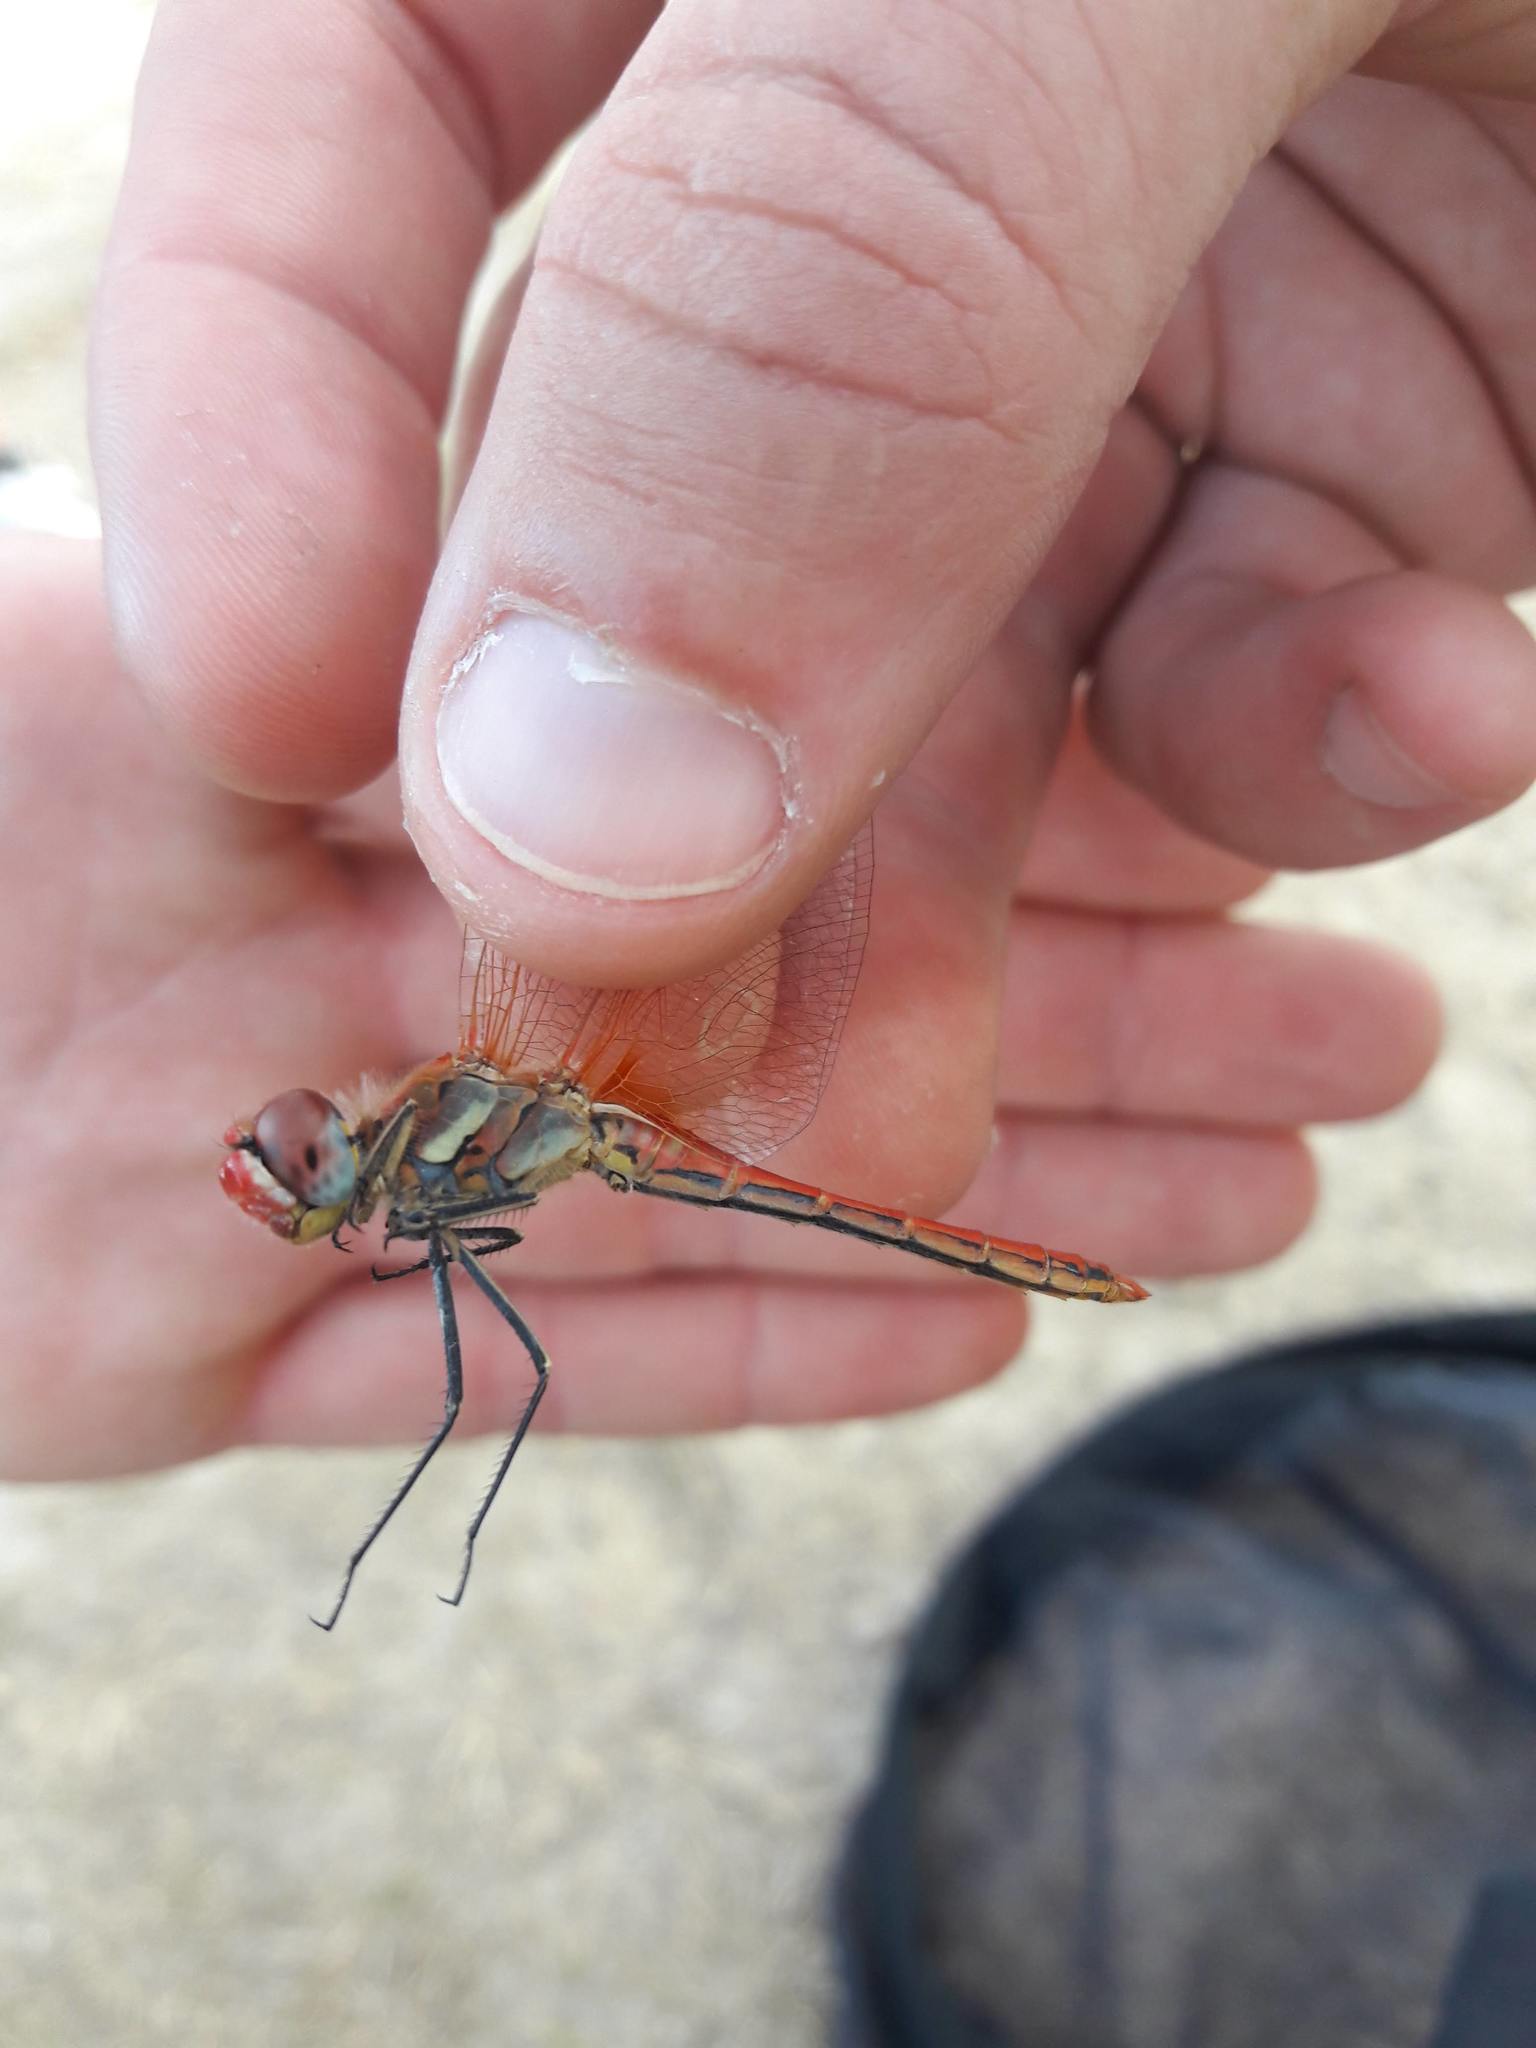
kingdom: Animalia
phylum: Arthropoda
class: Insecta
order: Odonata
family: Libellulidae
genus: Sympetrum
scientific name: Sympetrum fonscolombii
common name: Red-veined darter
